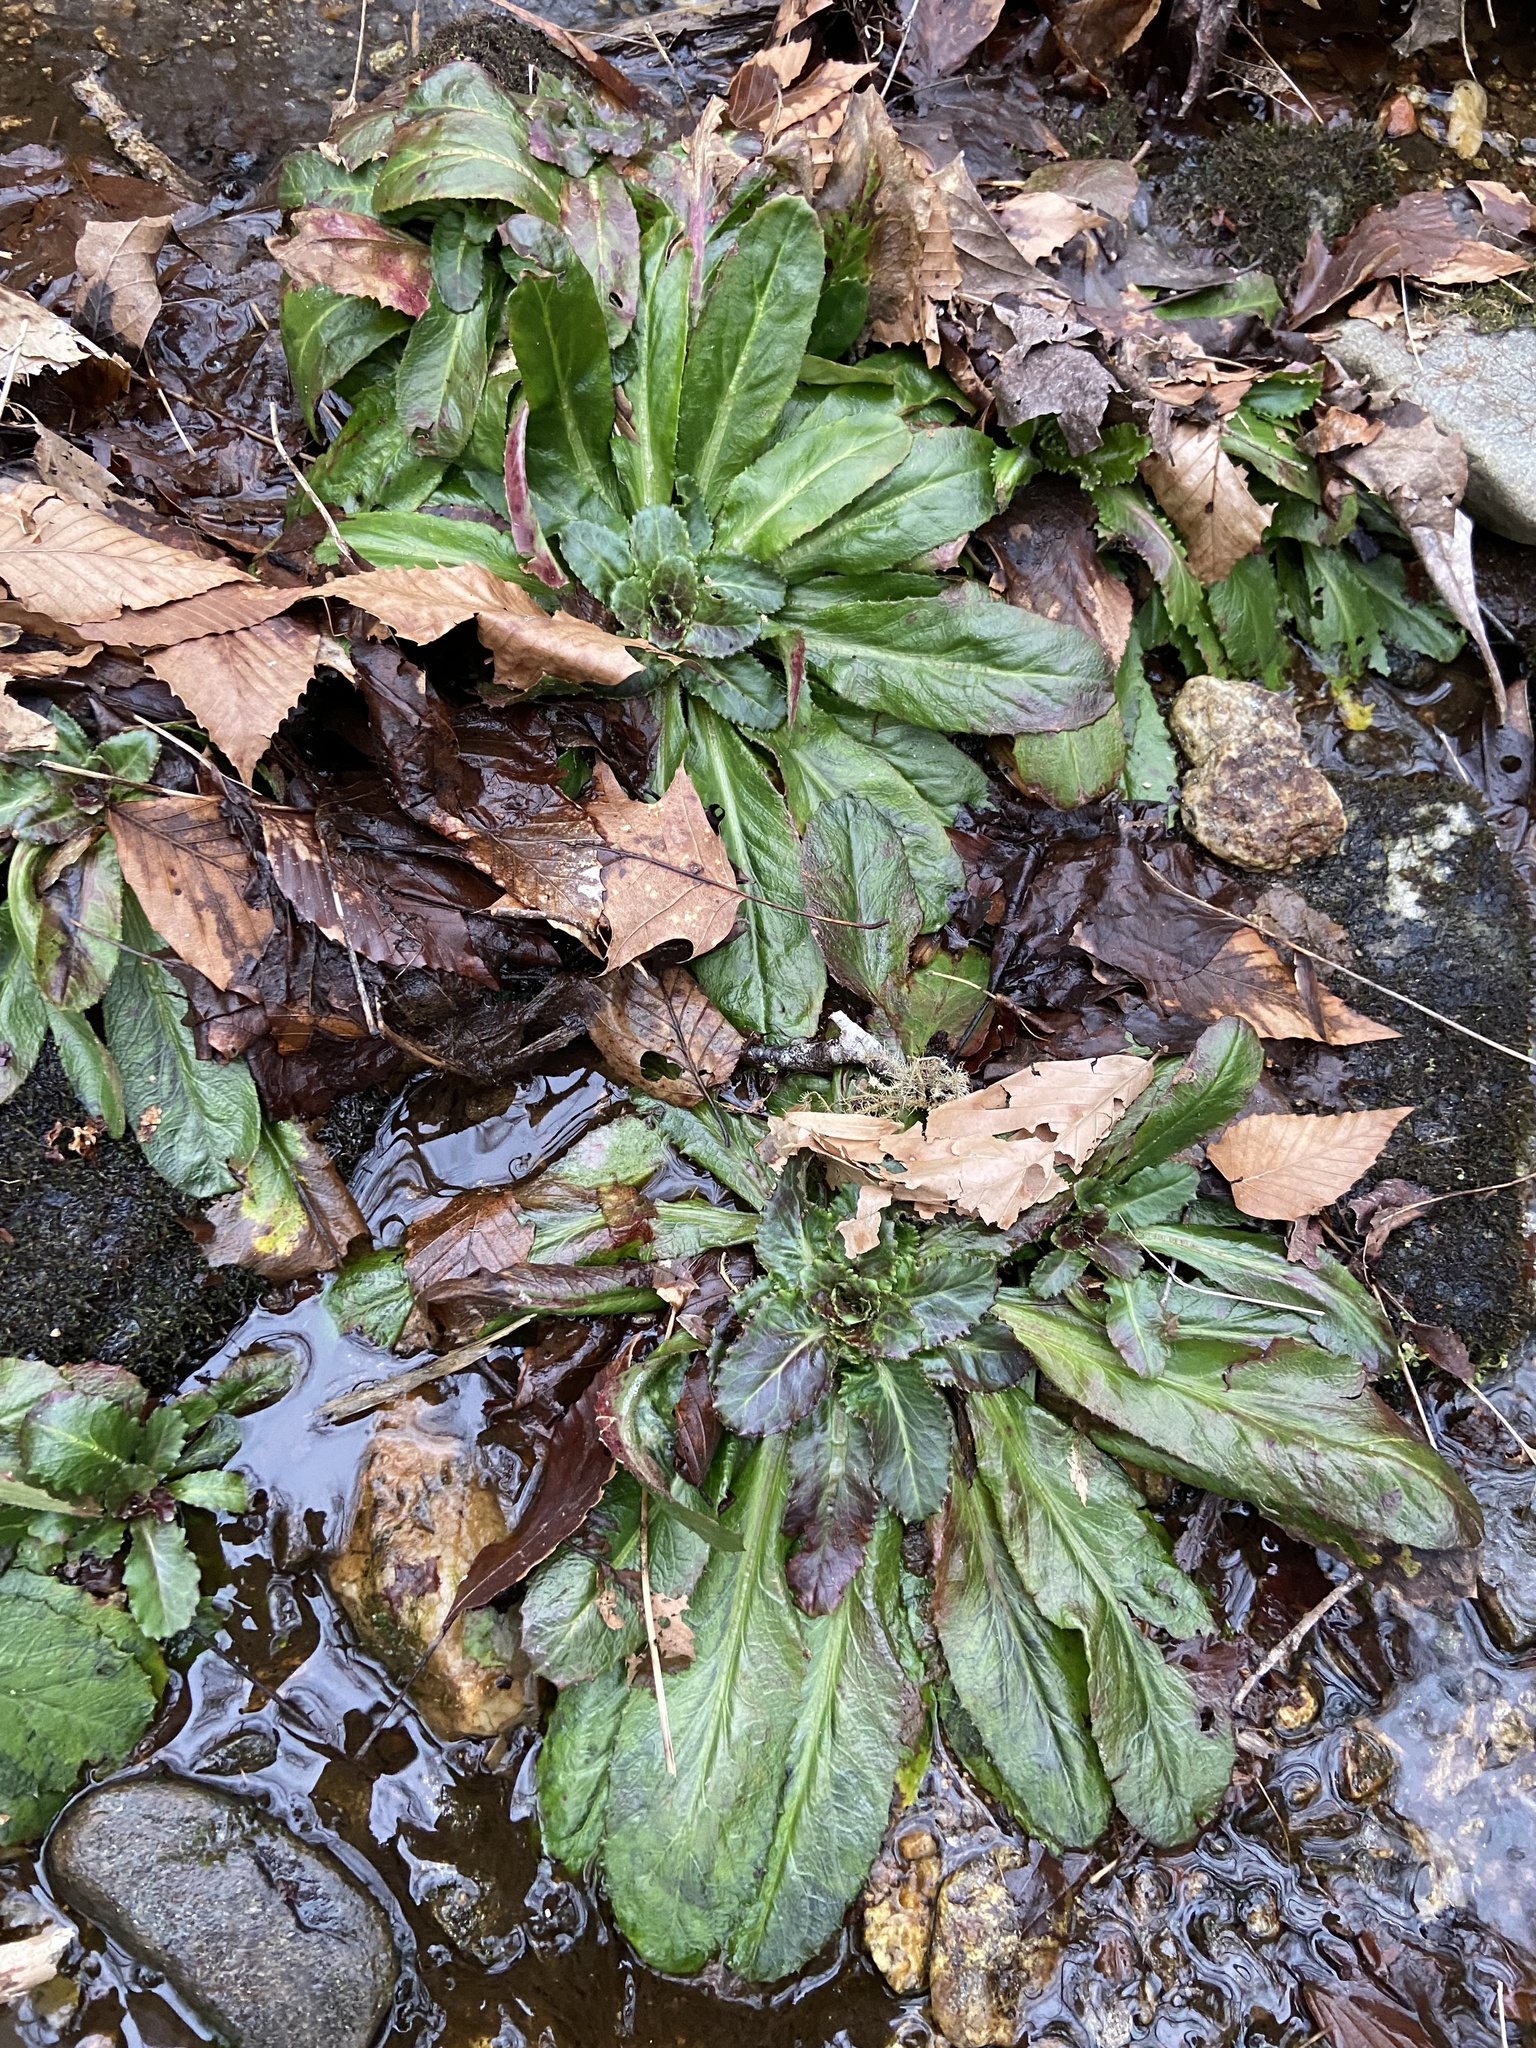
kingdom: Plantae
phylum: Tracheophyta
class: Magnoliopsida
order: Saxifragales
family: Saxifragaceae
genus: Micranthes
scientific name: Micranthes micranthidifolia
